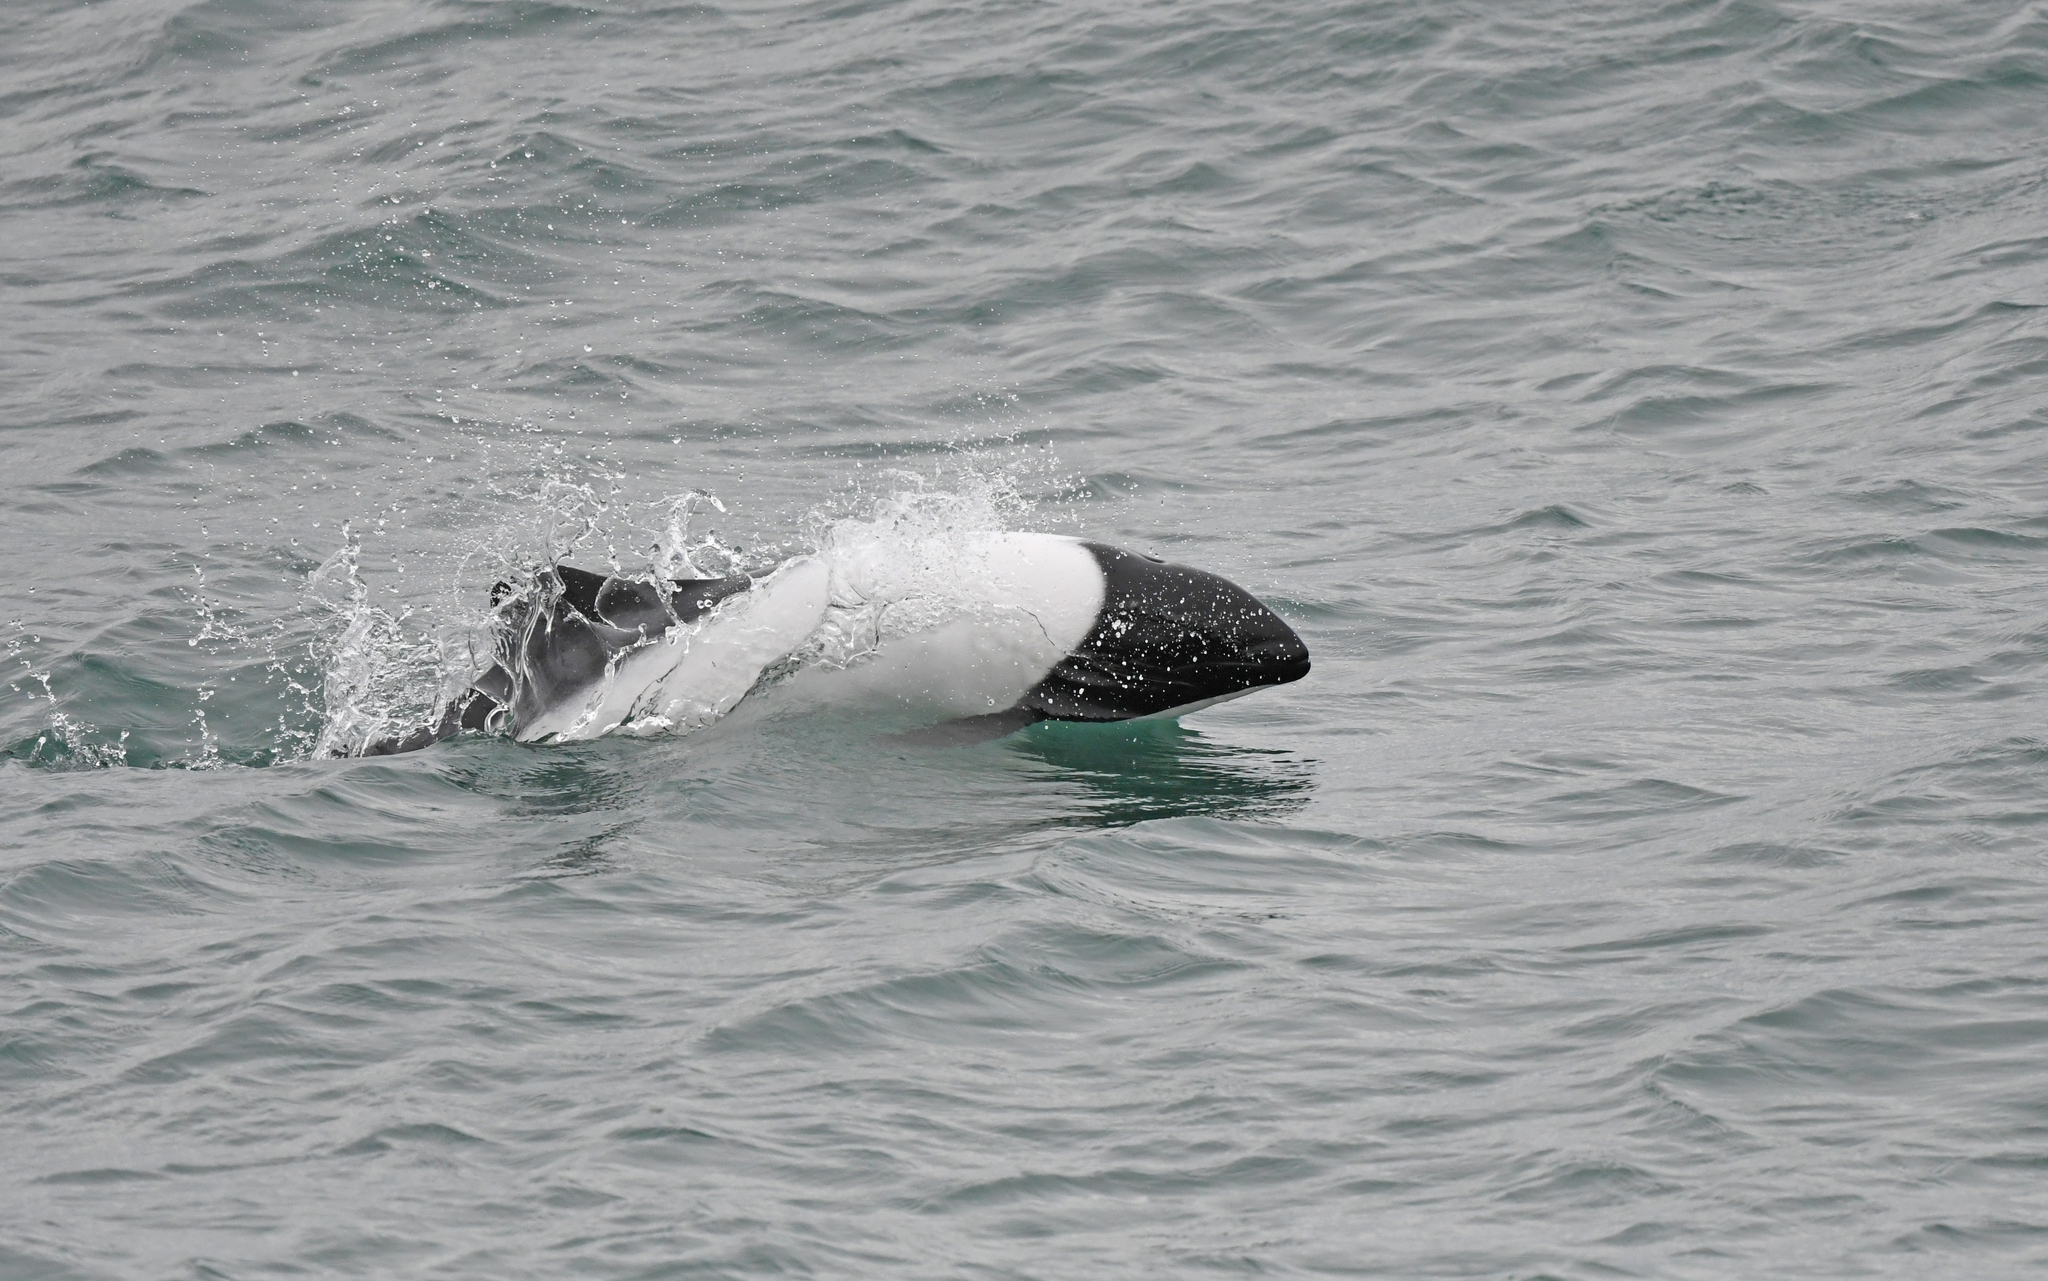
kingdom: Animalia
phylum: Chordata
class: Mammalia
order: Cetacea
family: Delphinidae
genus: Cephalorhynchus
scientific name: Cephalorhynchus commersonii
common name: Commerson's dolphin
